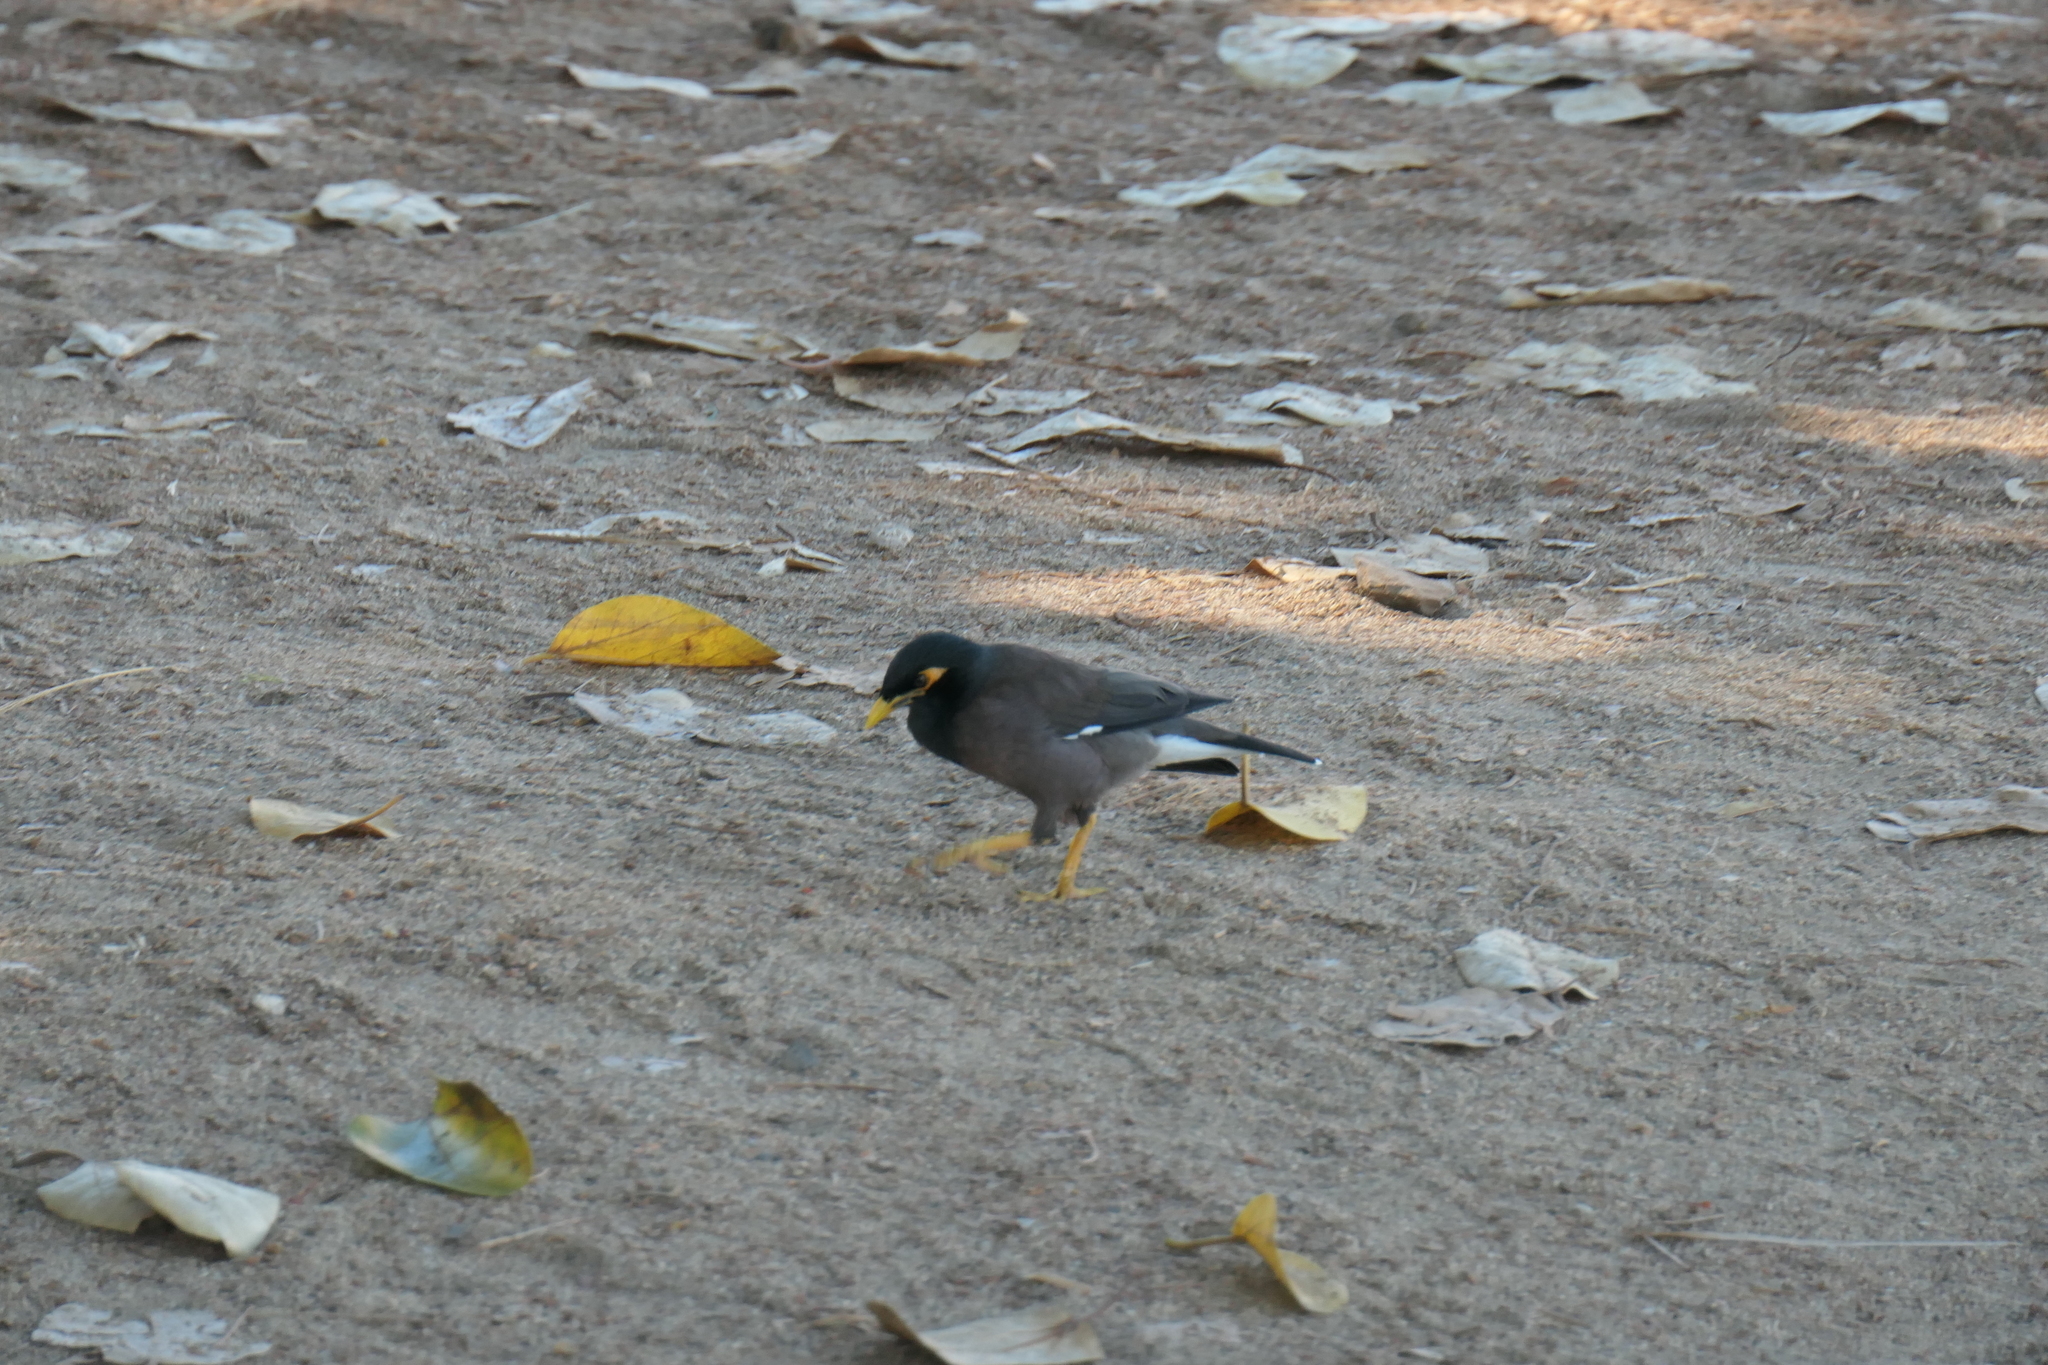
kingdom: Animalia
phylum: Chordata
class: Aves
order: Passeriformes
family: Sturnidae
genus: Acridotheres
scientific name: Acridotheres tristis
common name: Common myna
